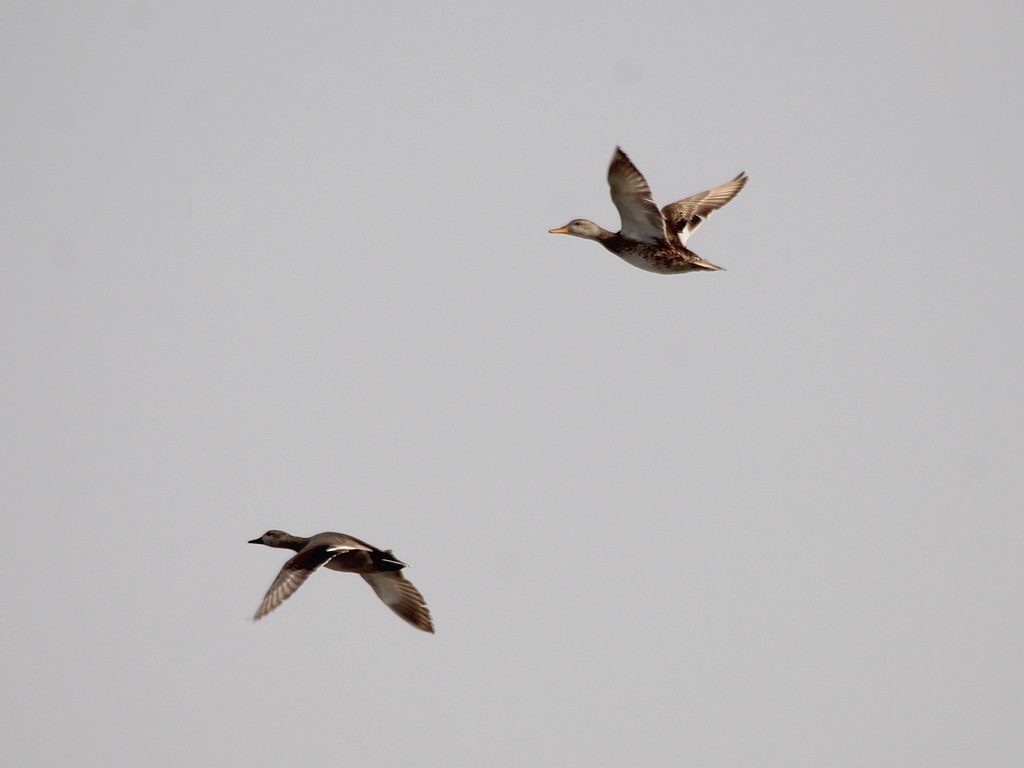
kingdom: Animalia
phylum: Chordata
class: Aves
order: Anseriformes
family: Anatidae
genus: Mareca
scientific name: Mareca strepera
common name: Gadwall
